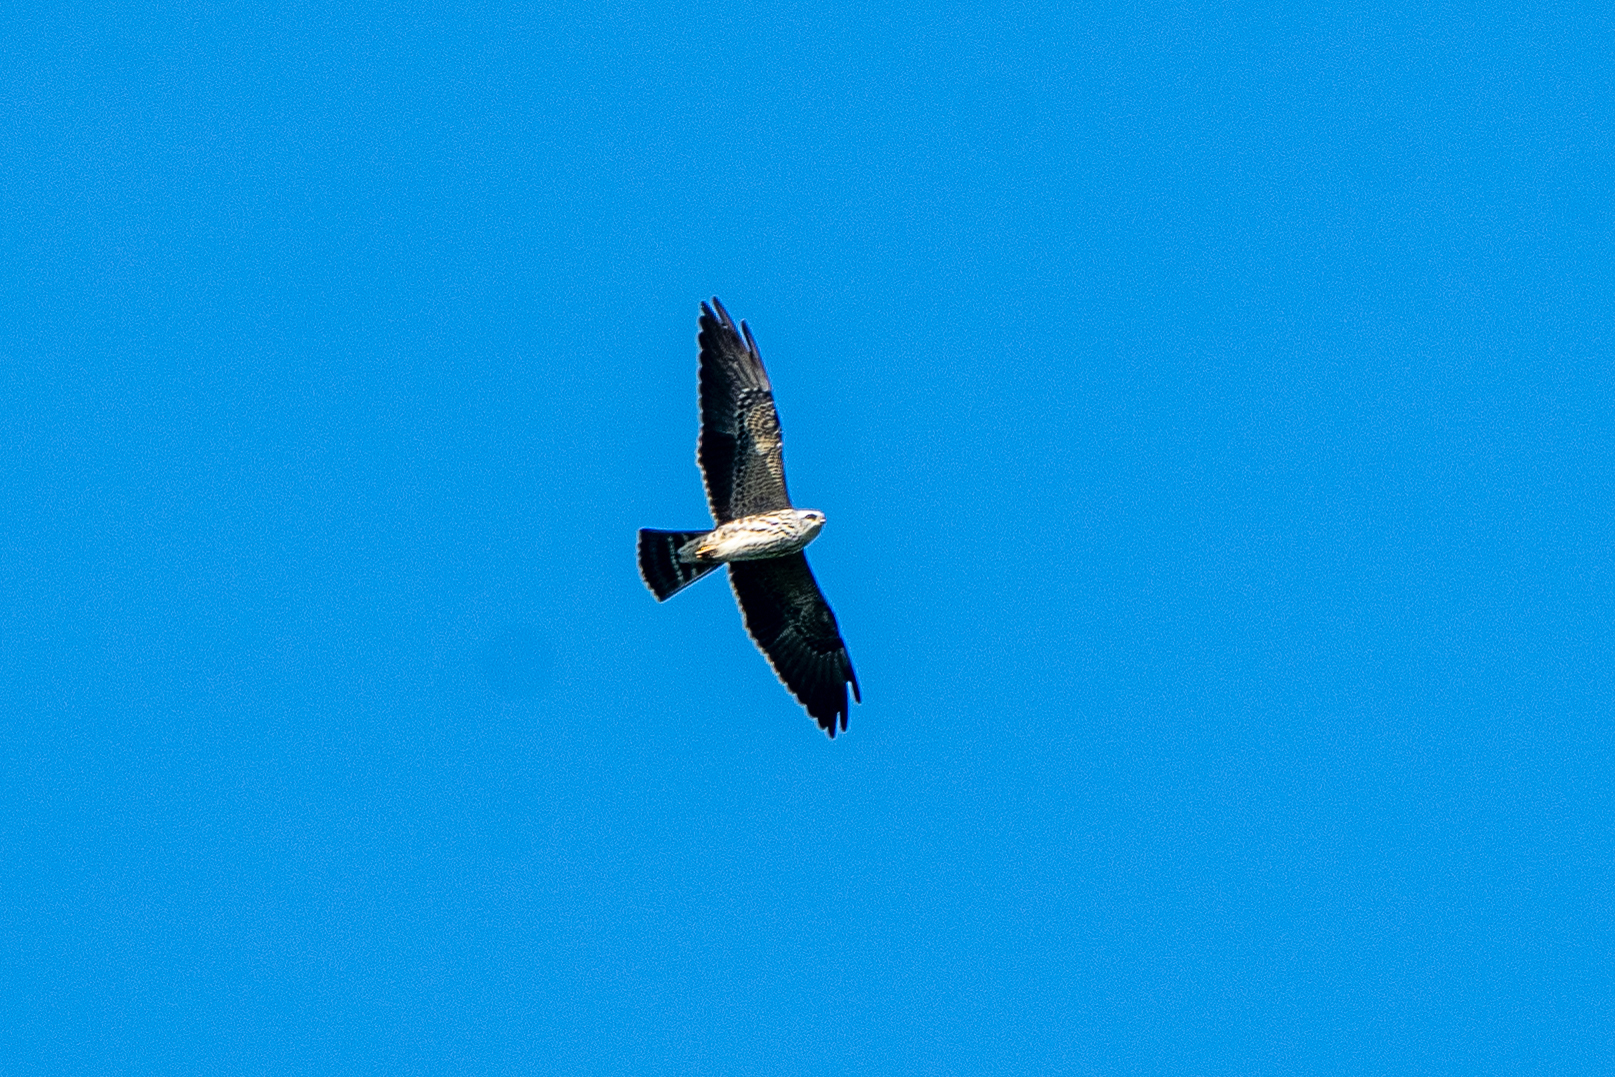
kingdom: Animalia
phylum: Chordata
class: Aves
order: Accipitriformes
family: Accipitridae
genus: Ictinia
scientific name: Ictinia mississippiensis
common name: Mississippi kite
